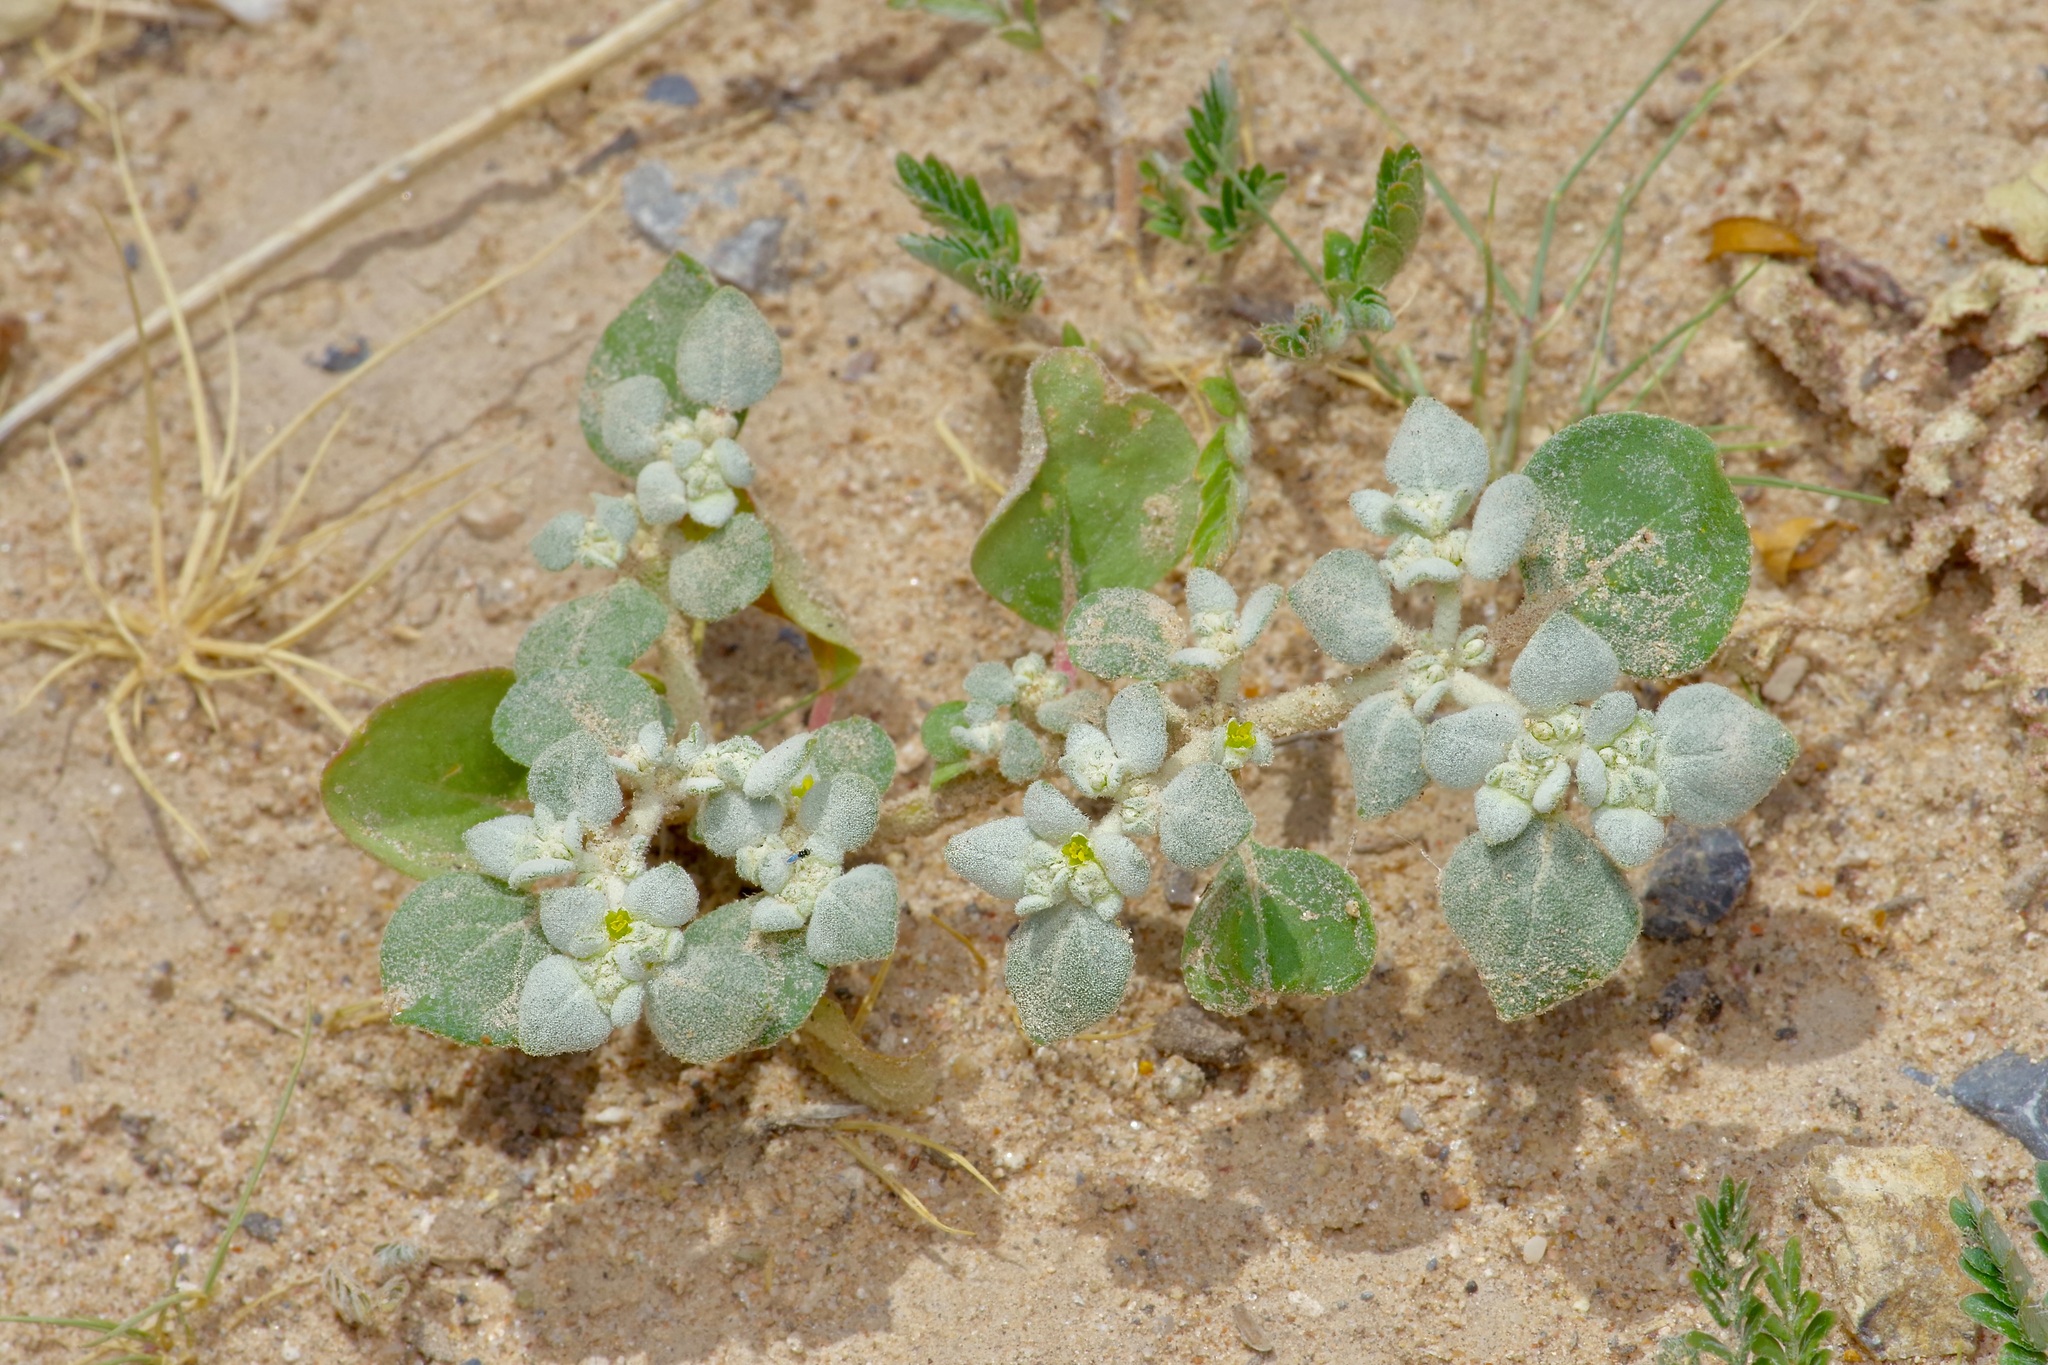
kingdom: Plantae
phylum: Tracheophyta
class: Magnoliopsida
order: Caryophyllales
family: Amaranthaceae
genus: Tidestromia
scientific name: Tidestromia lanuginosa
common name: Woolly tidestromia
